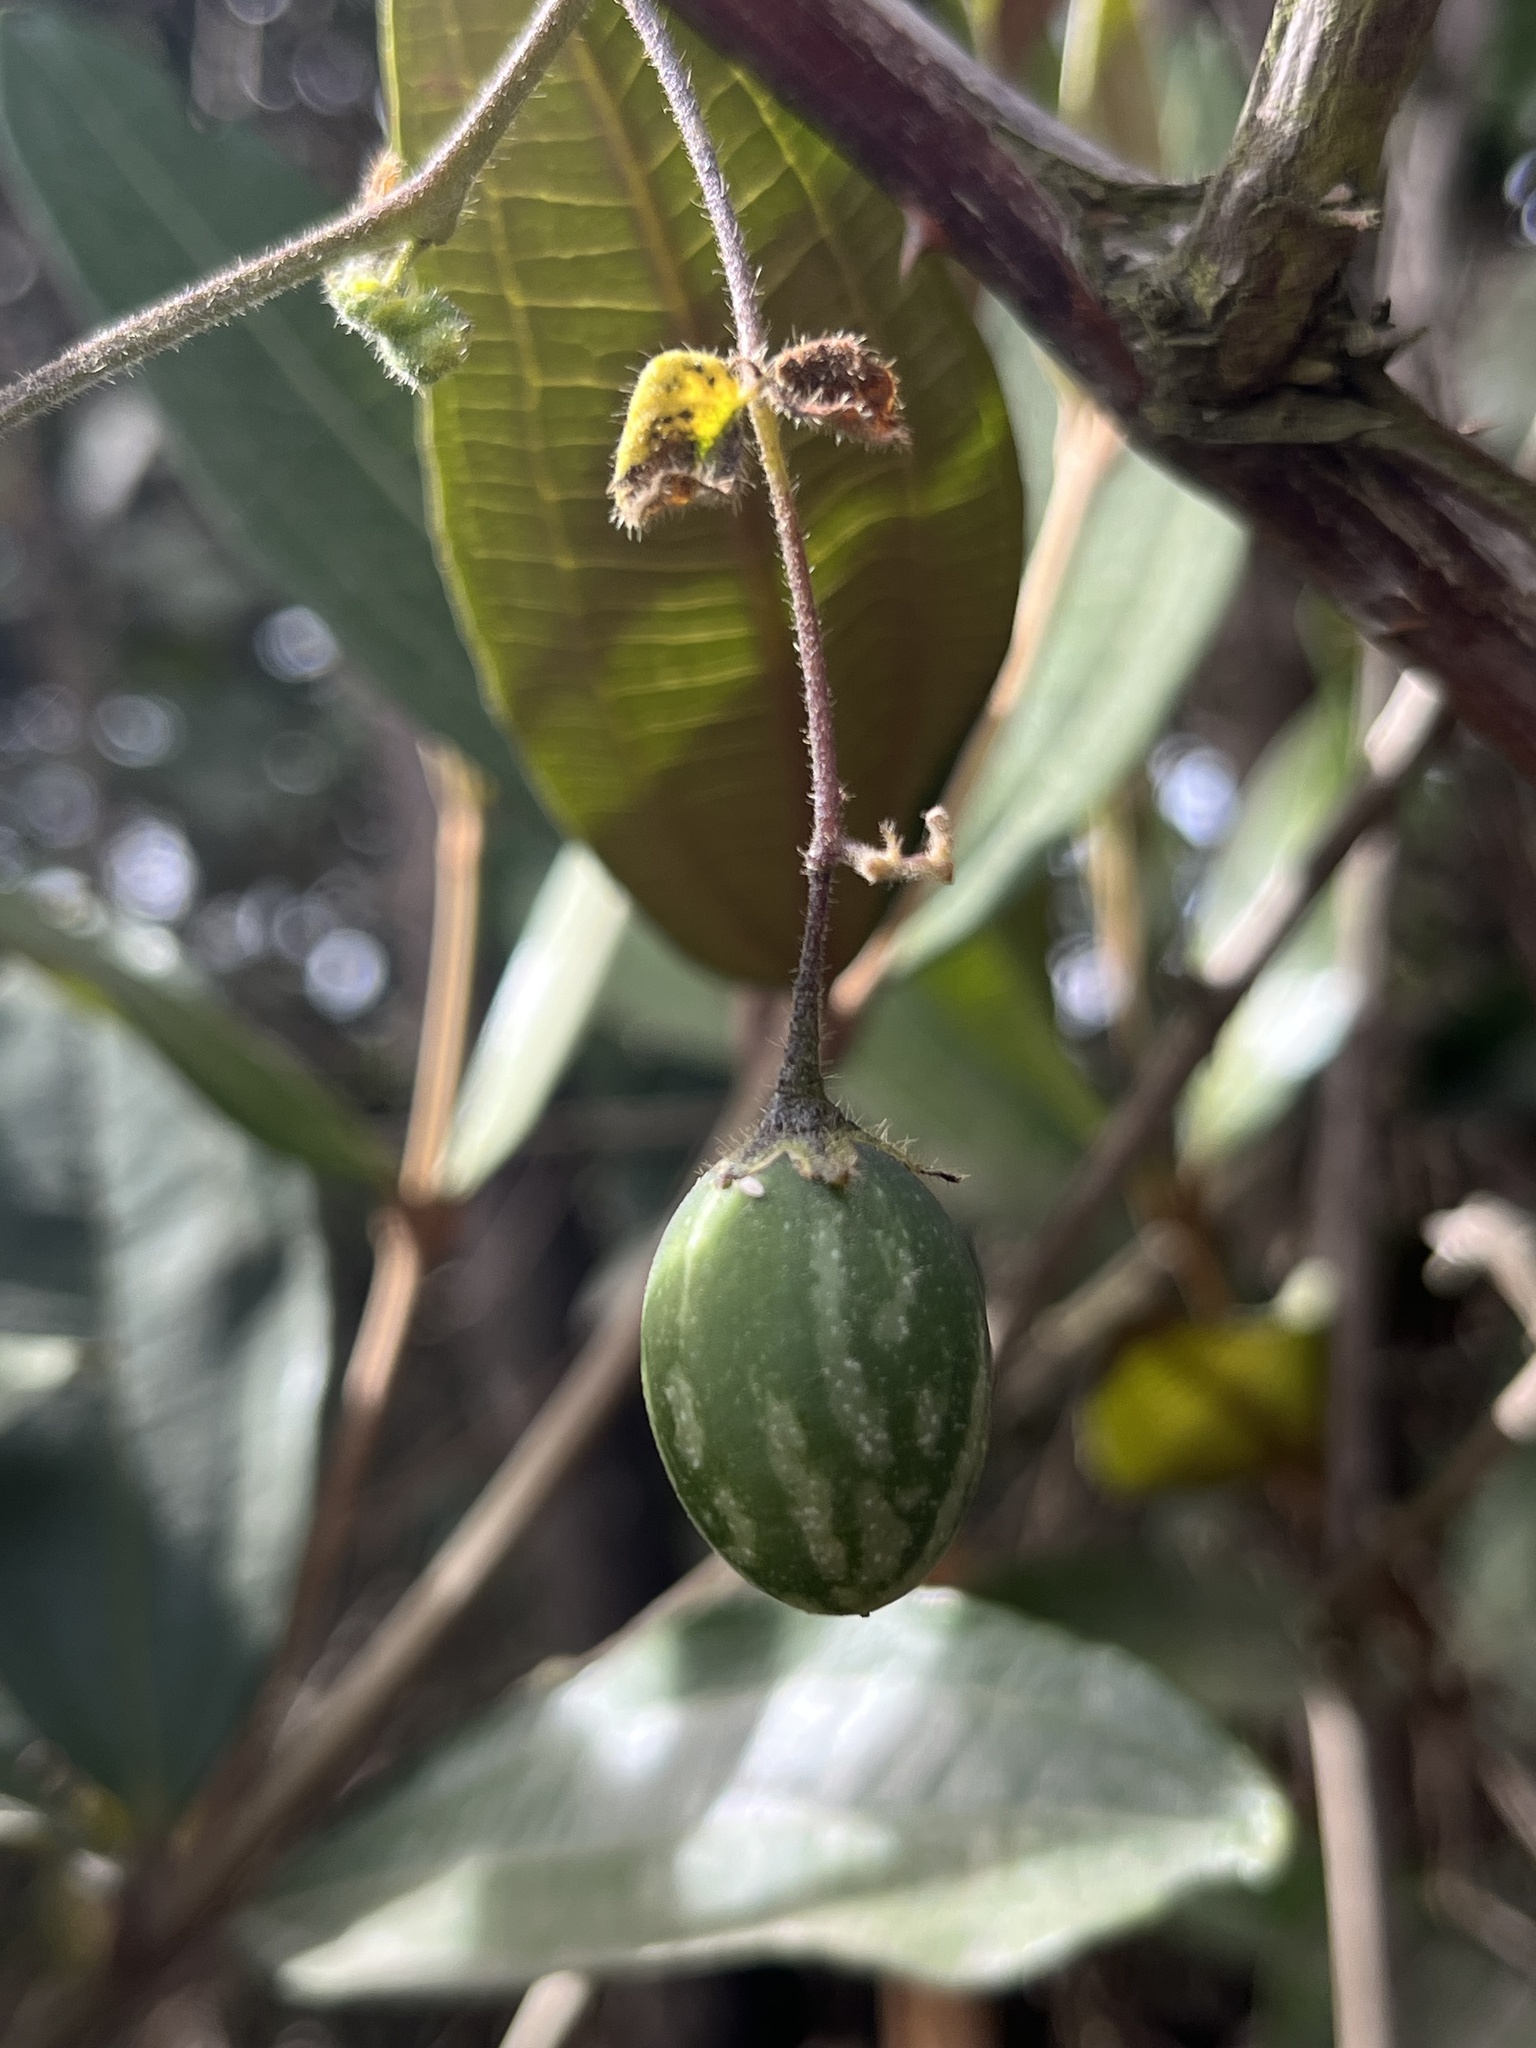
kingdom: Plantae
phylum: Tracheophyta
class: Magnoliopsida
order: Solanales
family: Solanaceae
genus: Solanum
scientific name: Solanum caripense
